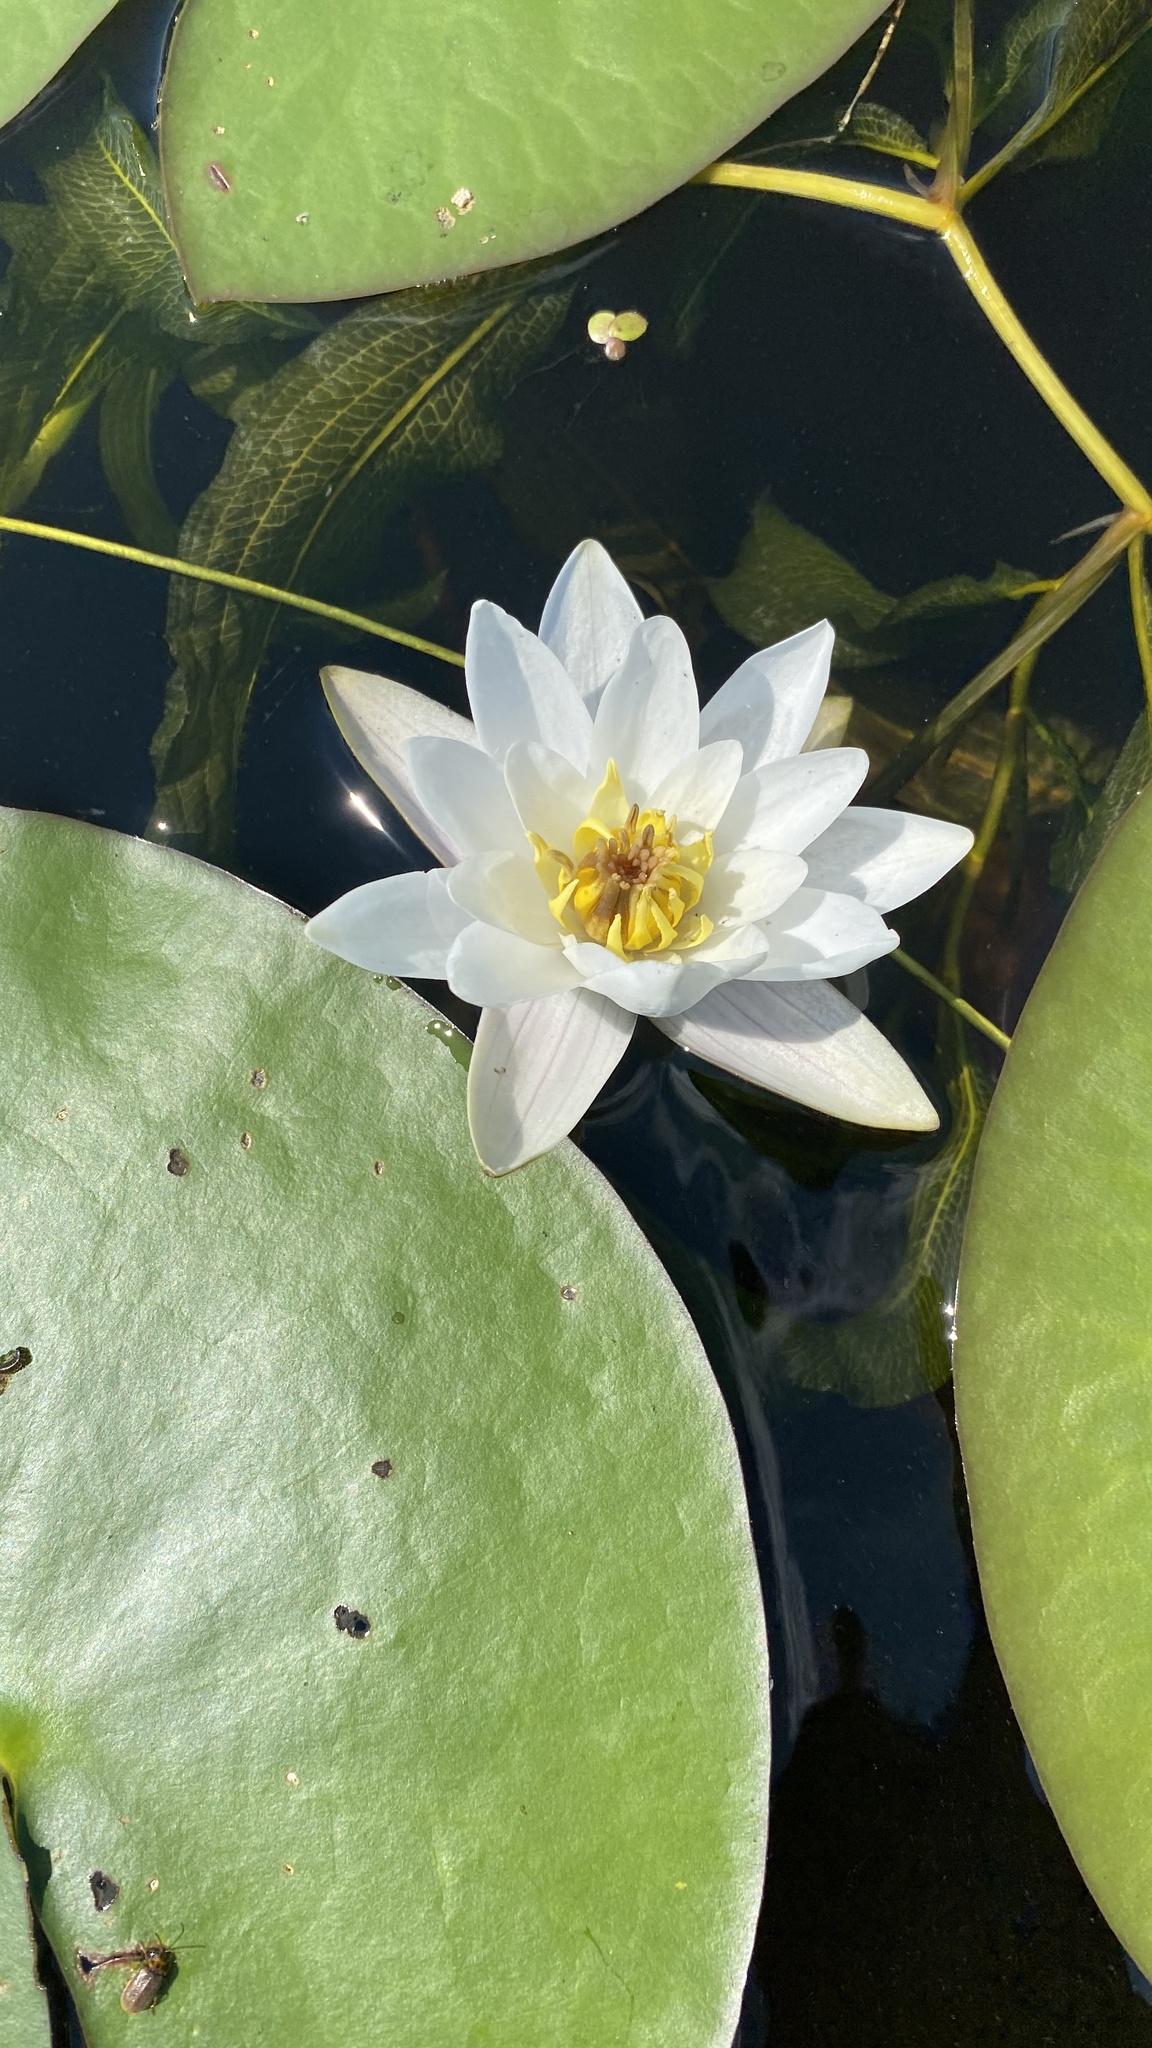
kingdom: Plantae
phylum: Tracheophyta
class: Magnoliopsida
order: Nymphaeales
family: Nymphaeaceae
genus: Nymphaea
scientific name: Nymphaea candida
